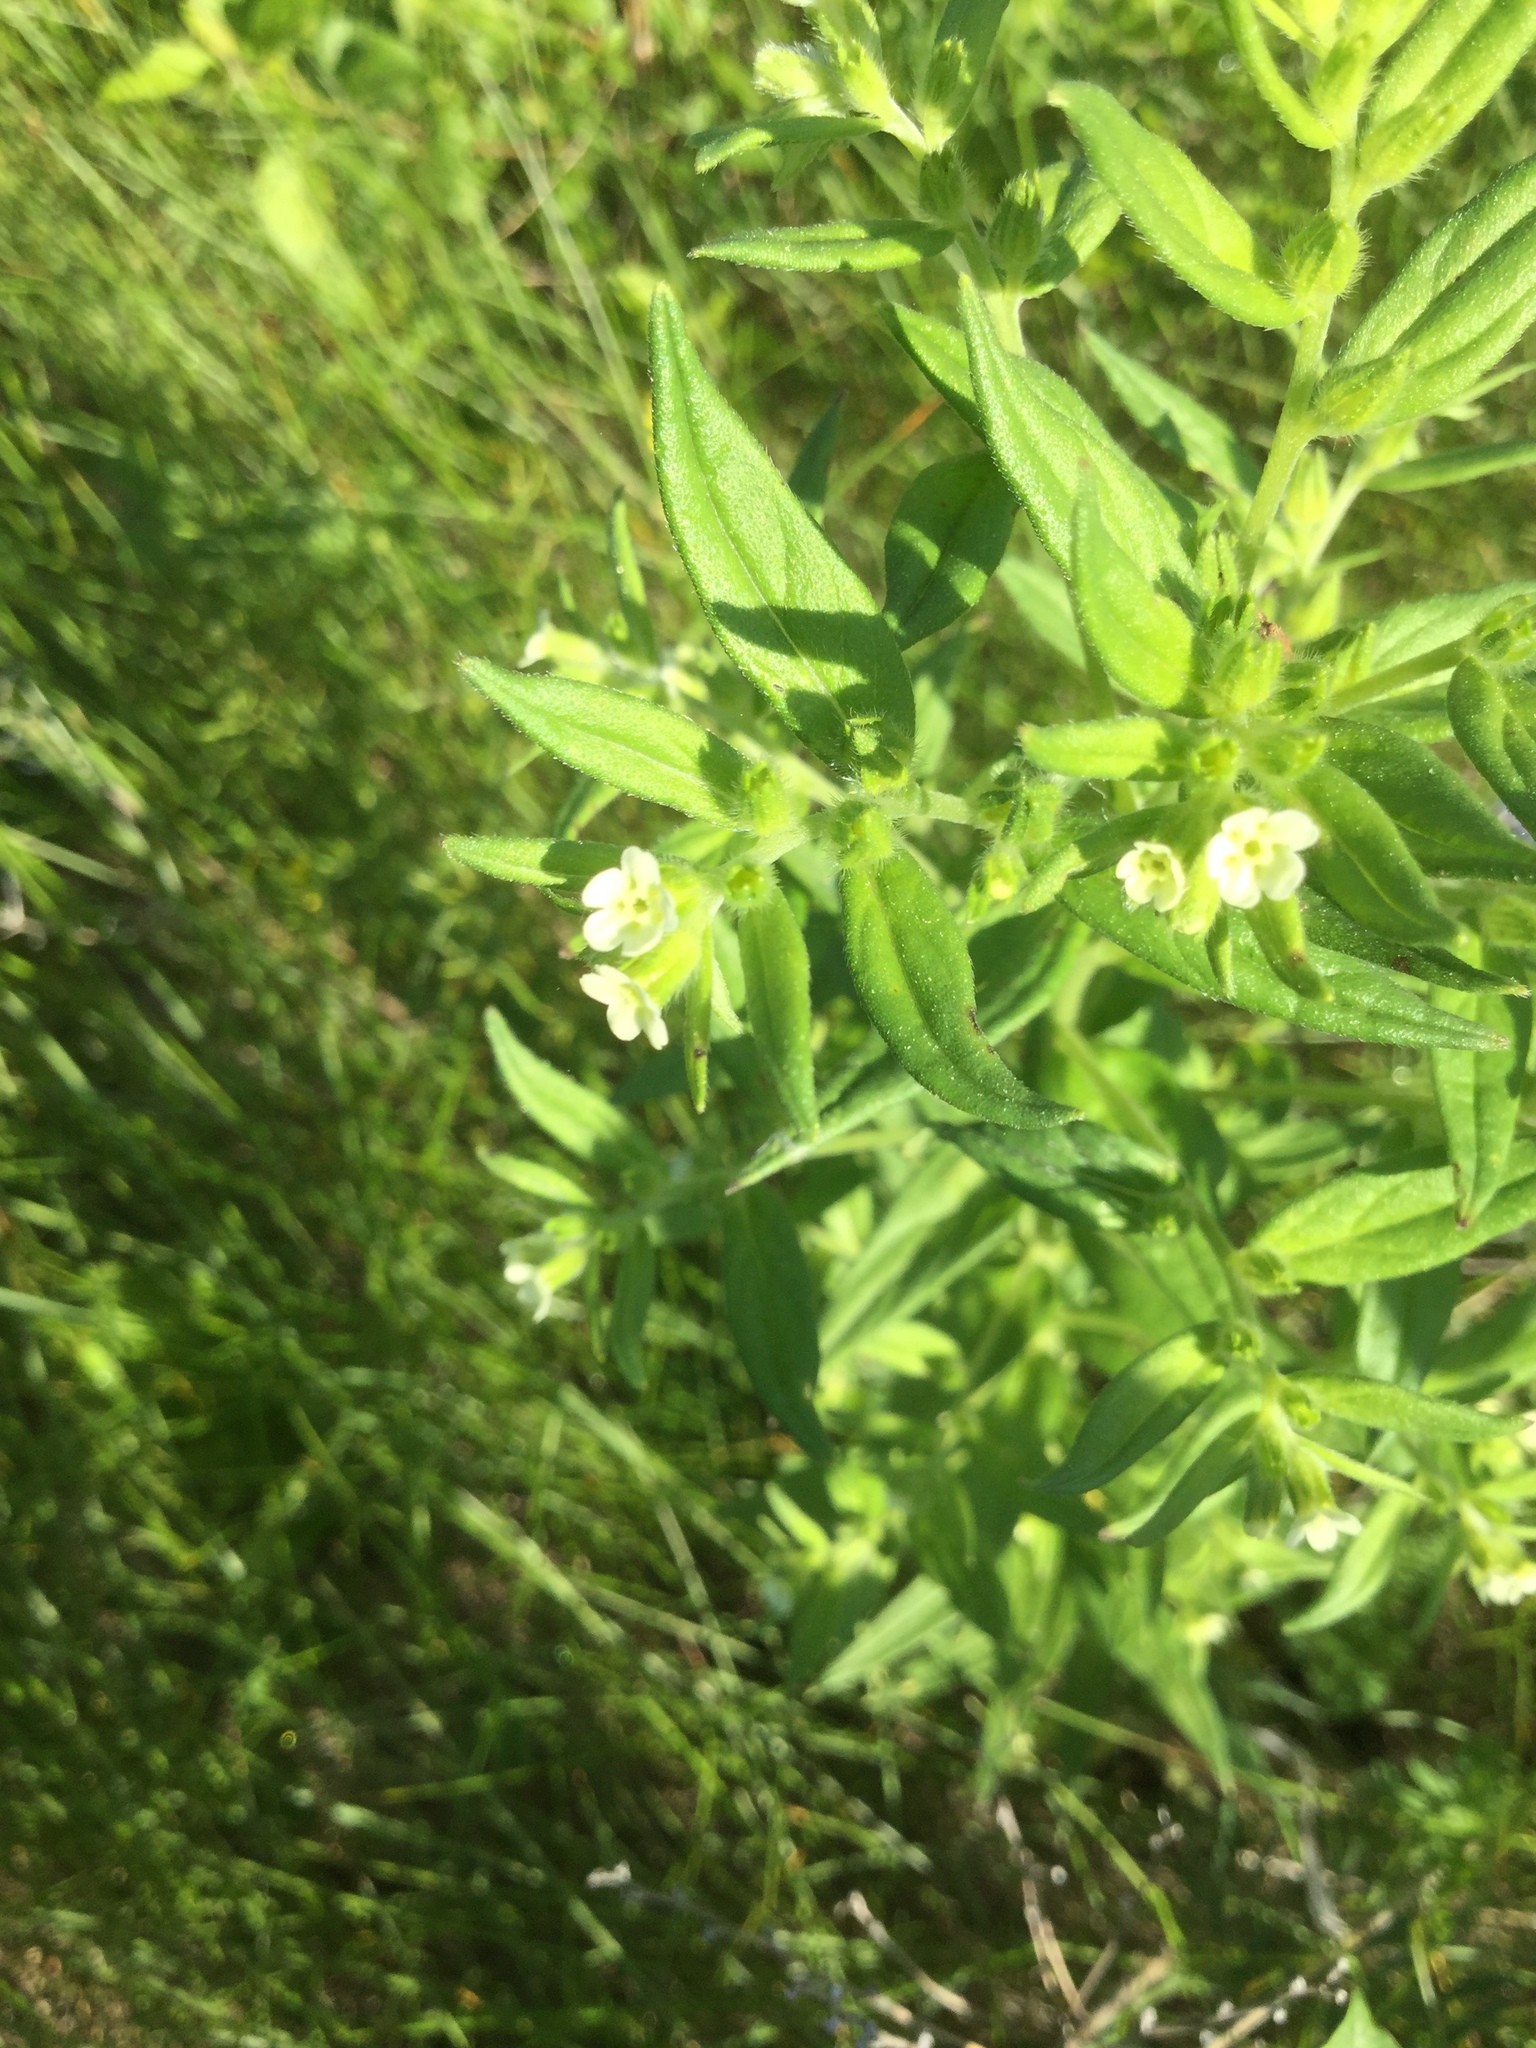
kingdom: Plantae
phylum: Tracheophyta
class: Magnoliopsida
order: Boraginales
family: Boraginaceae
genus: Lithospermum
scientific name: Lithospermum officinale
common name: Common gromwell
